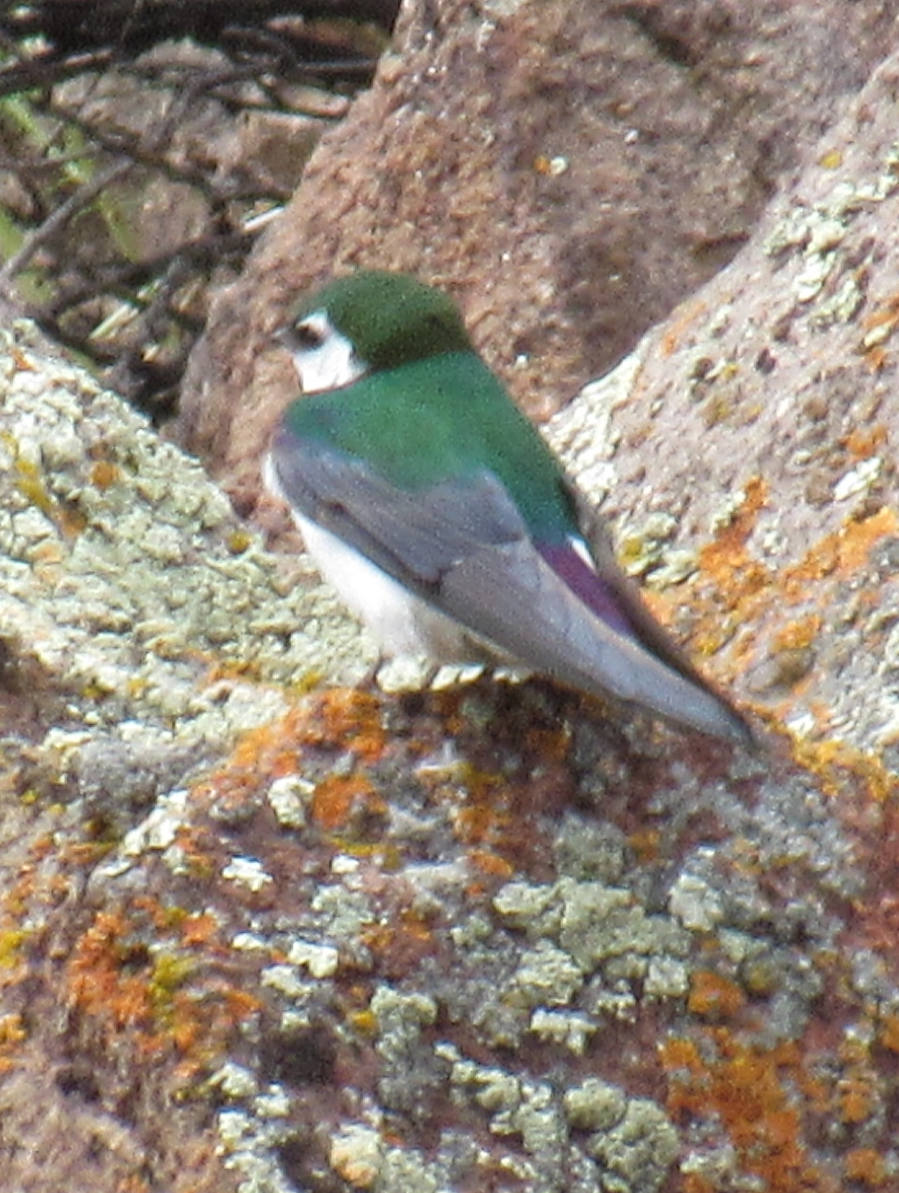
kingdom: Animalia
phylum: Chordata
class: Aves
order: Passeriformes
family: Hirundinidae
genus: Tachycineta
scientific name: Tachycineta thalassina
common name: Violet-green swallow
